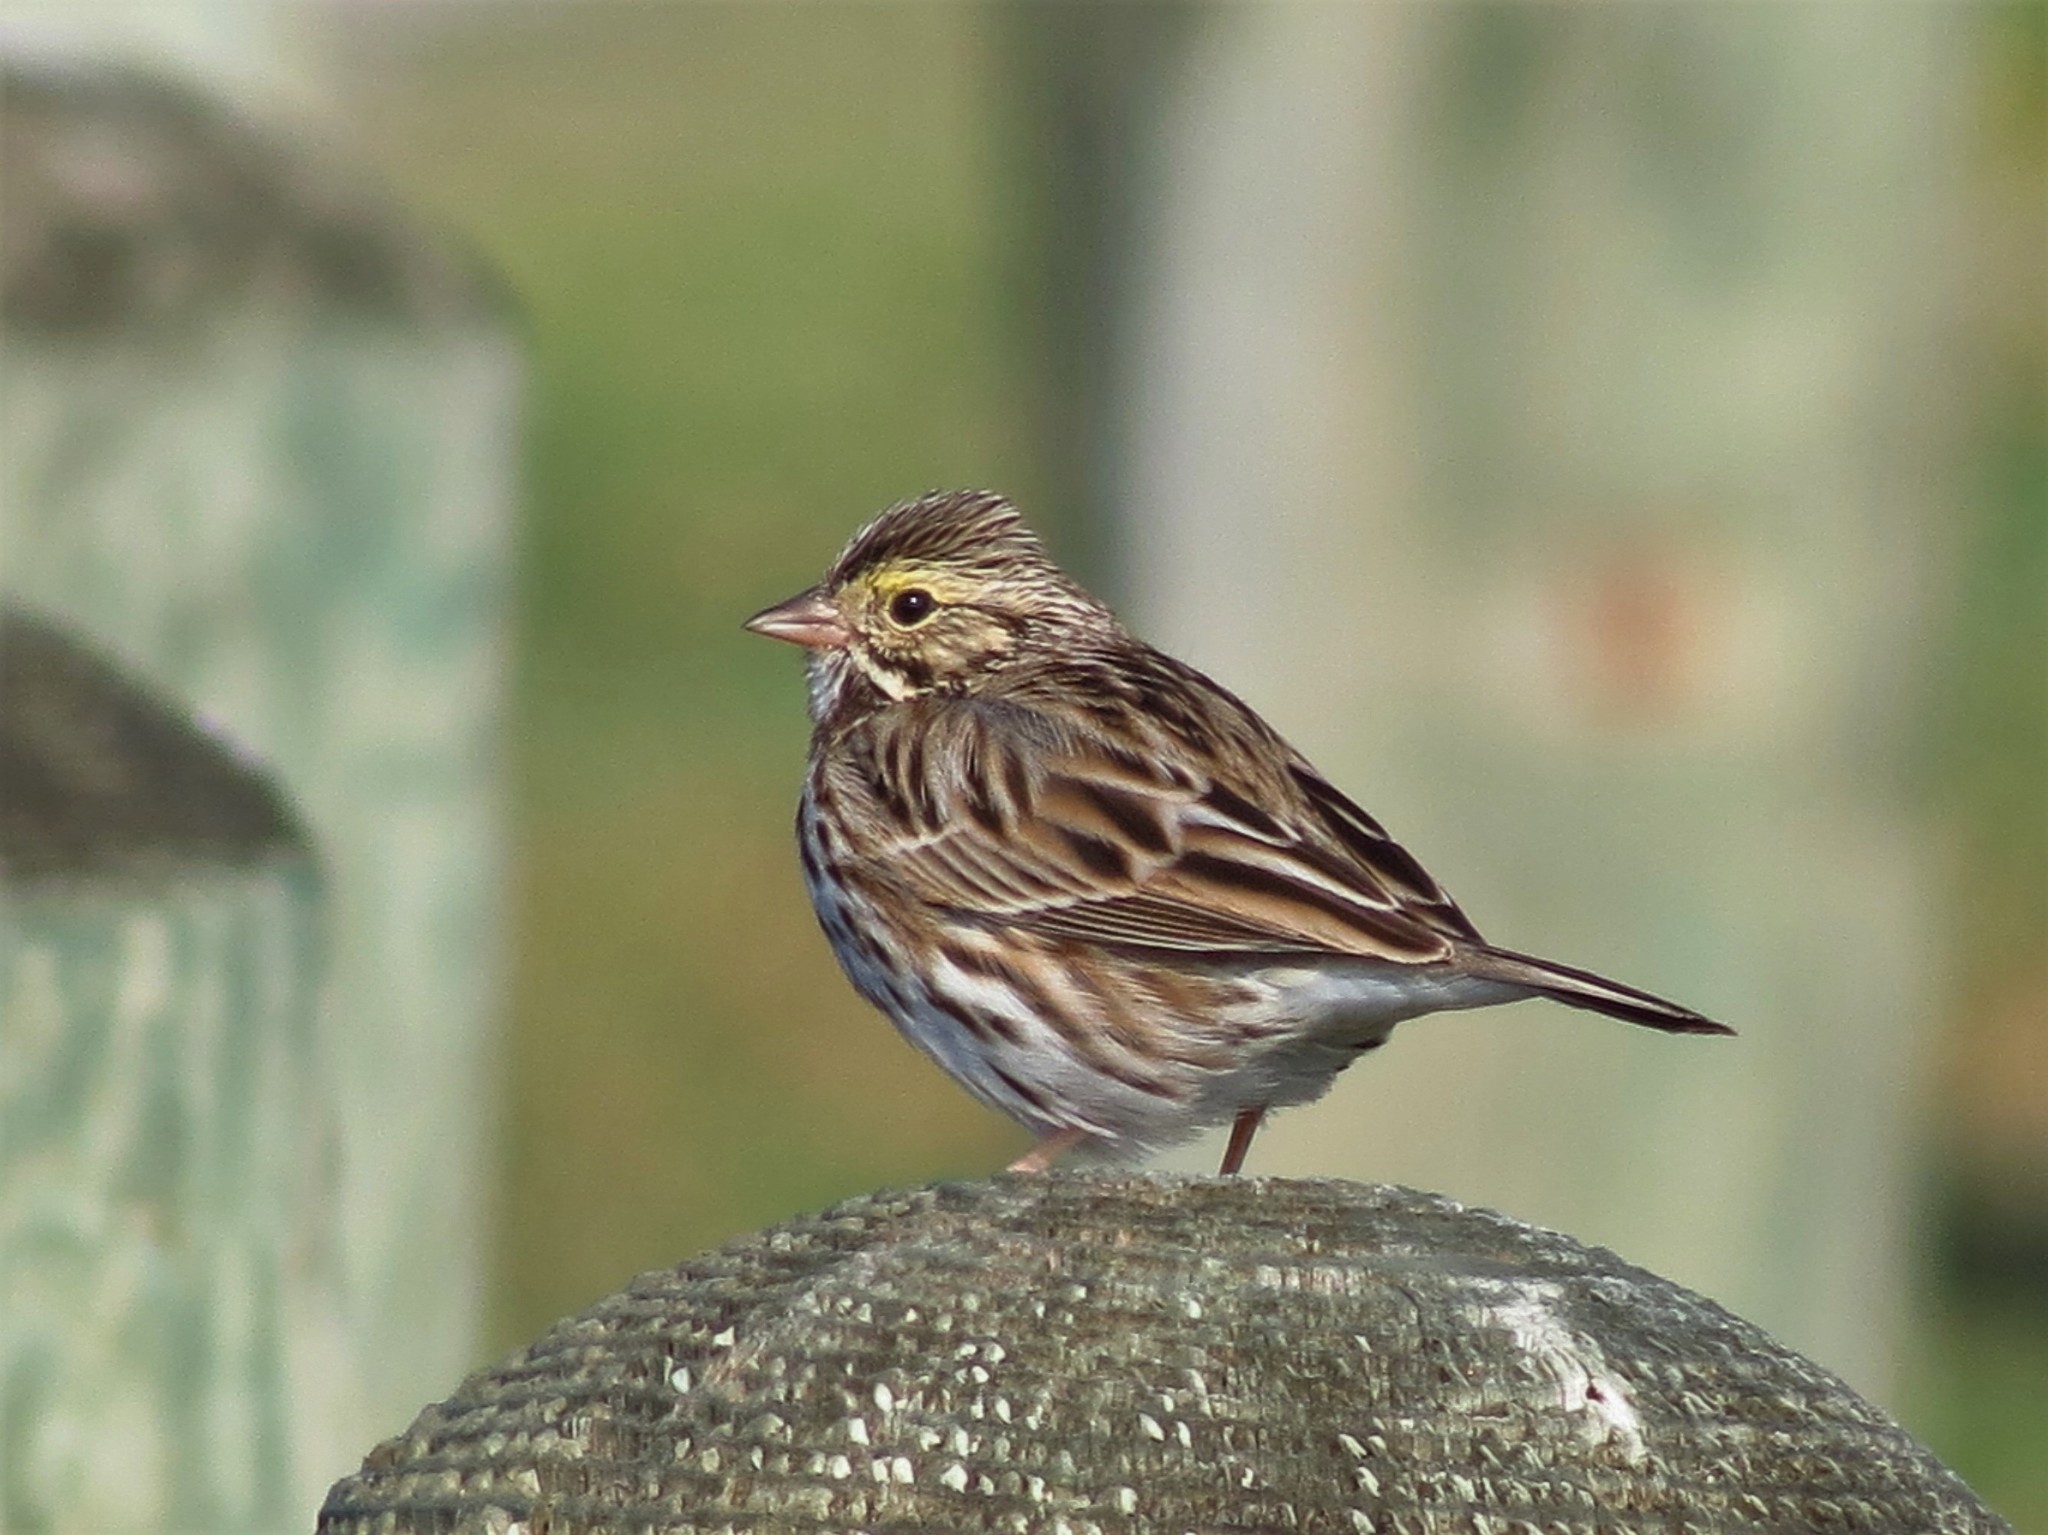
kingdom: Animalia
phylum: Chordata
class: Aves
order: Passeriformes
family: Passerellidae
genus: Passerculus
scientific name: Passerculus sandwichensis
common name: Savannah sparrow
